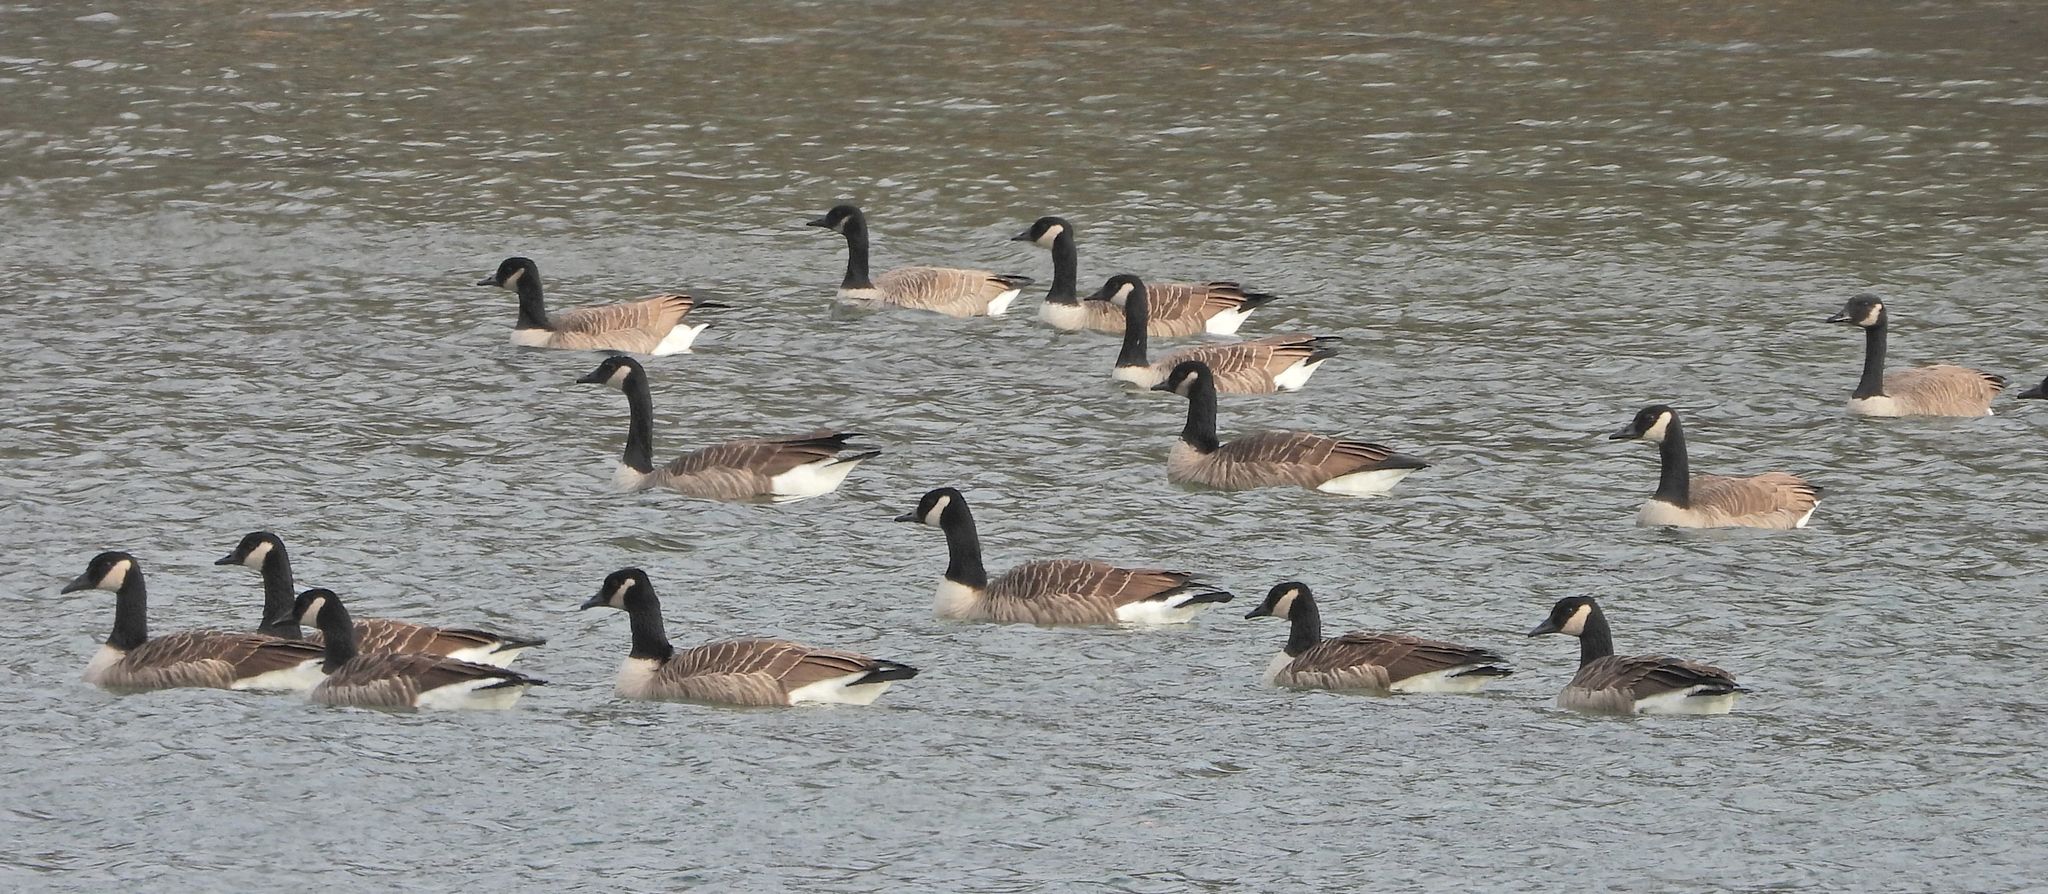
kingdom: Animalia
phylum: Chordata
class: Aves
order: Anseriformes
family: Anatidae
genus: Branta
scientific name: Branta canadensis
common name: Canada goose
